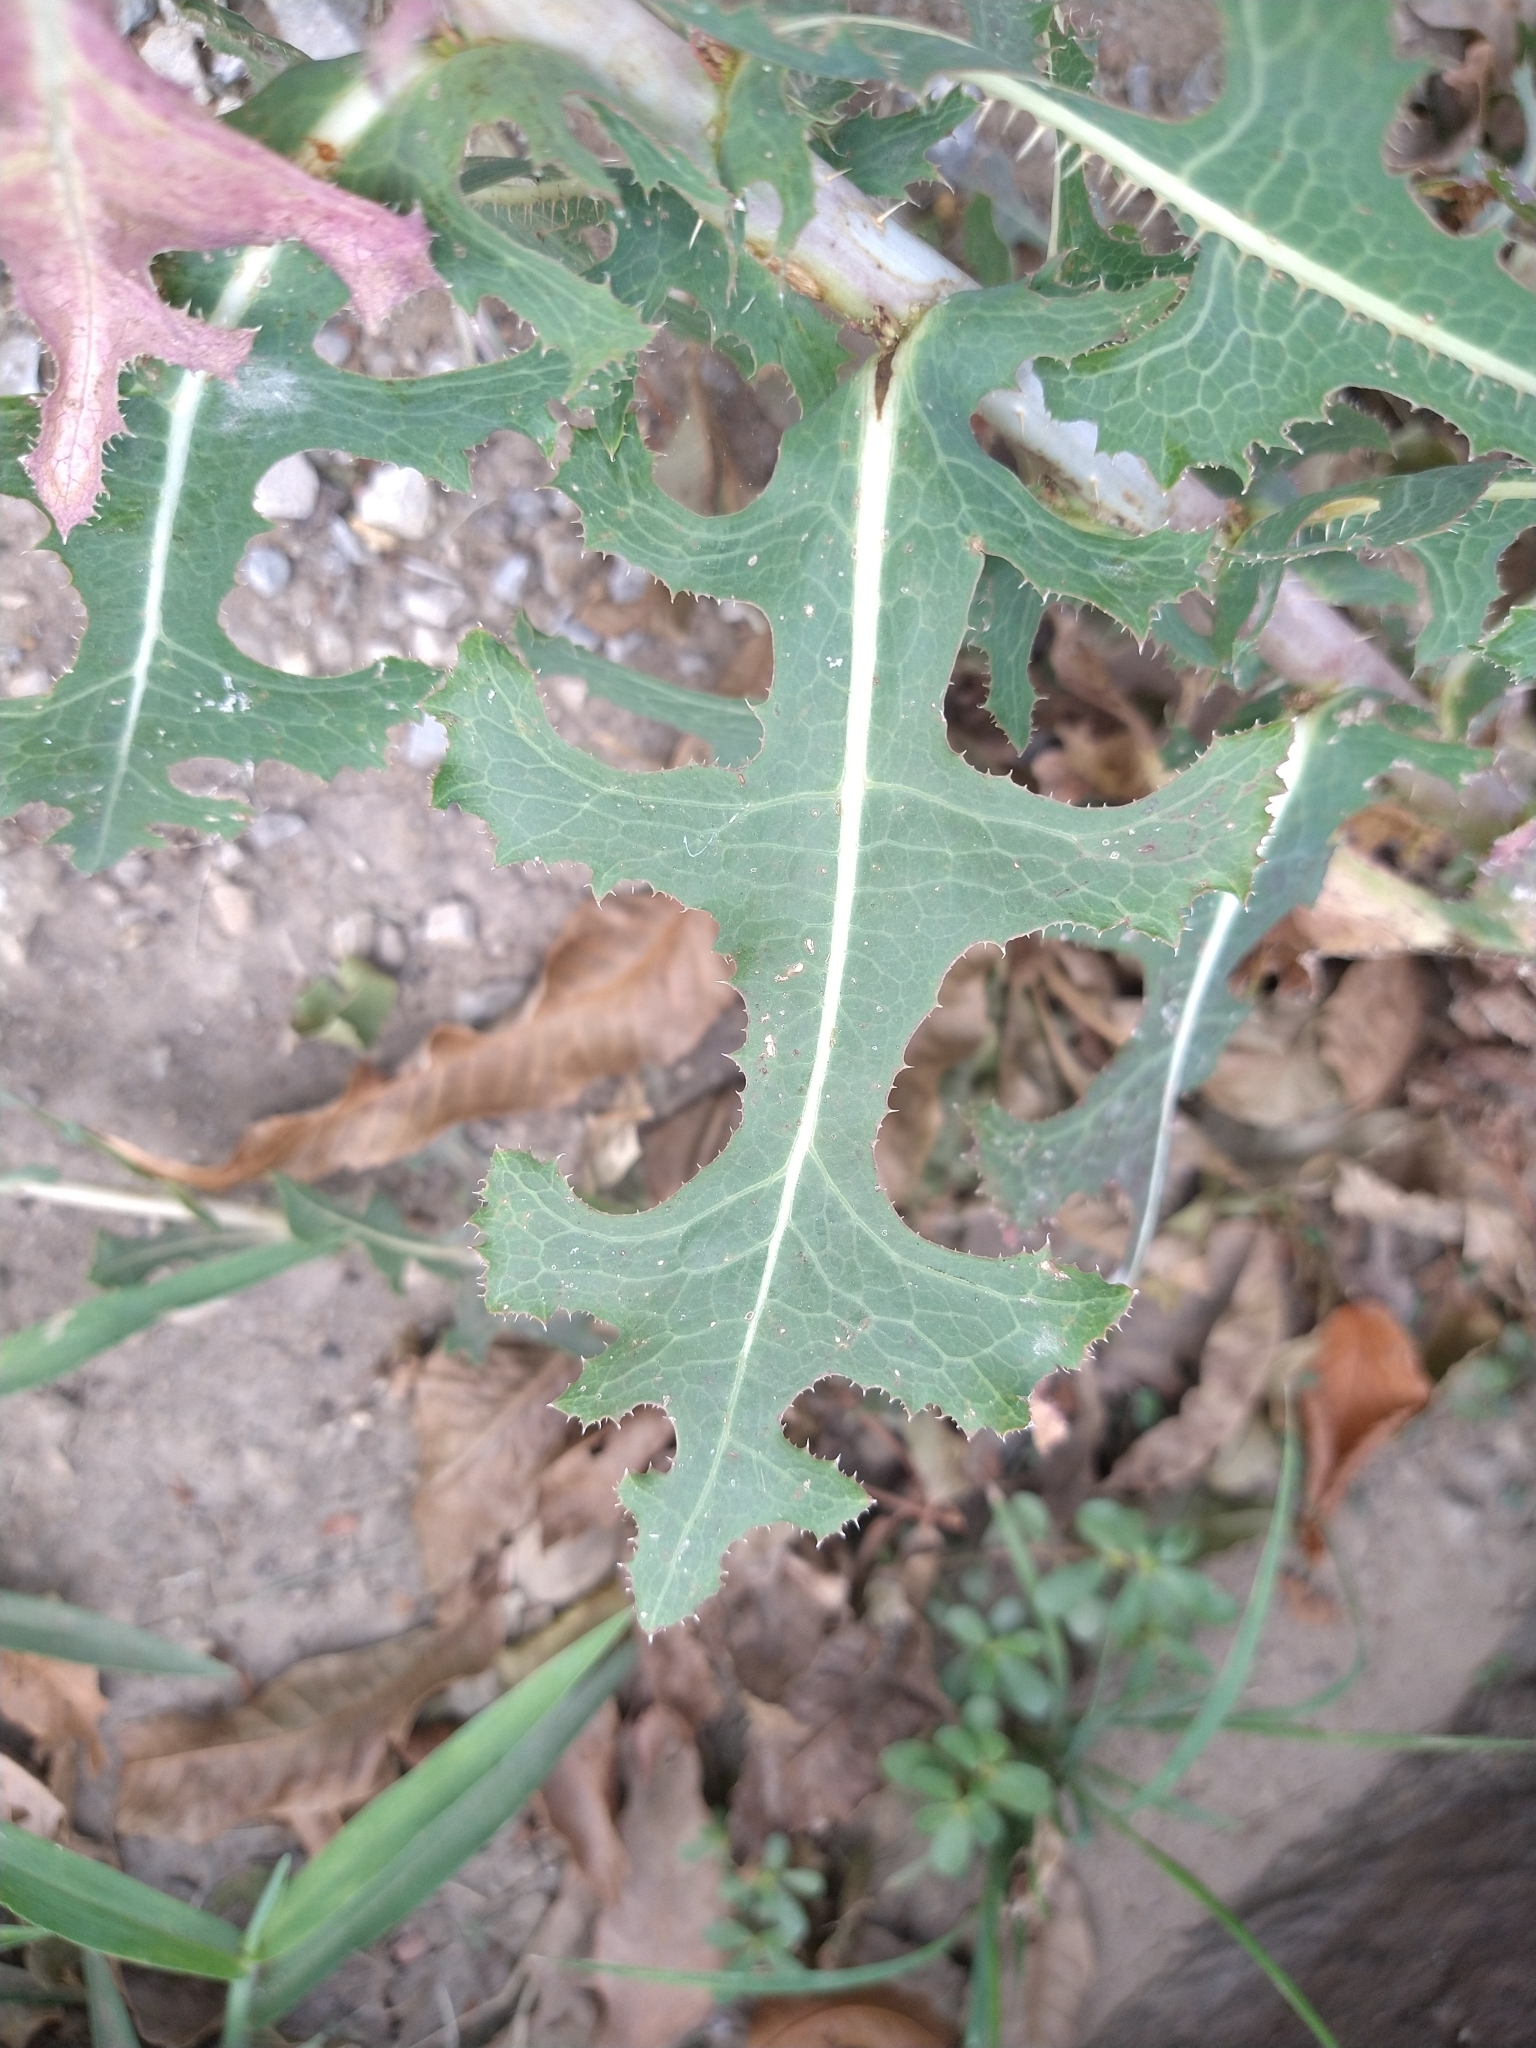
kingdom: Plantae
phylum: Tracheophyta
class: Magnoliopsida
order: Asterales
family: Asteraceae
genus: Lactuca
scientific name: Lactuca serriola
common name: Prickly lettuce
